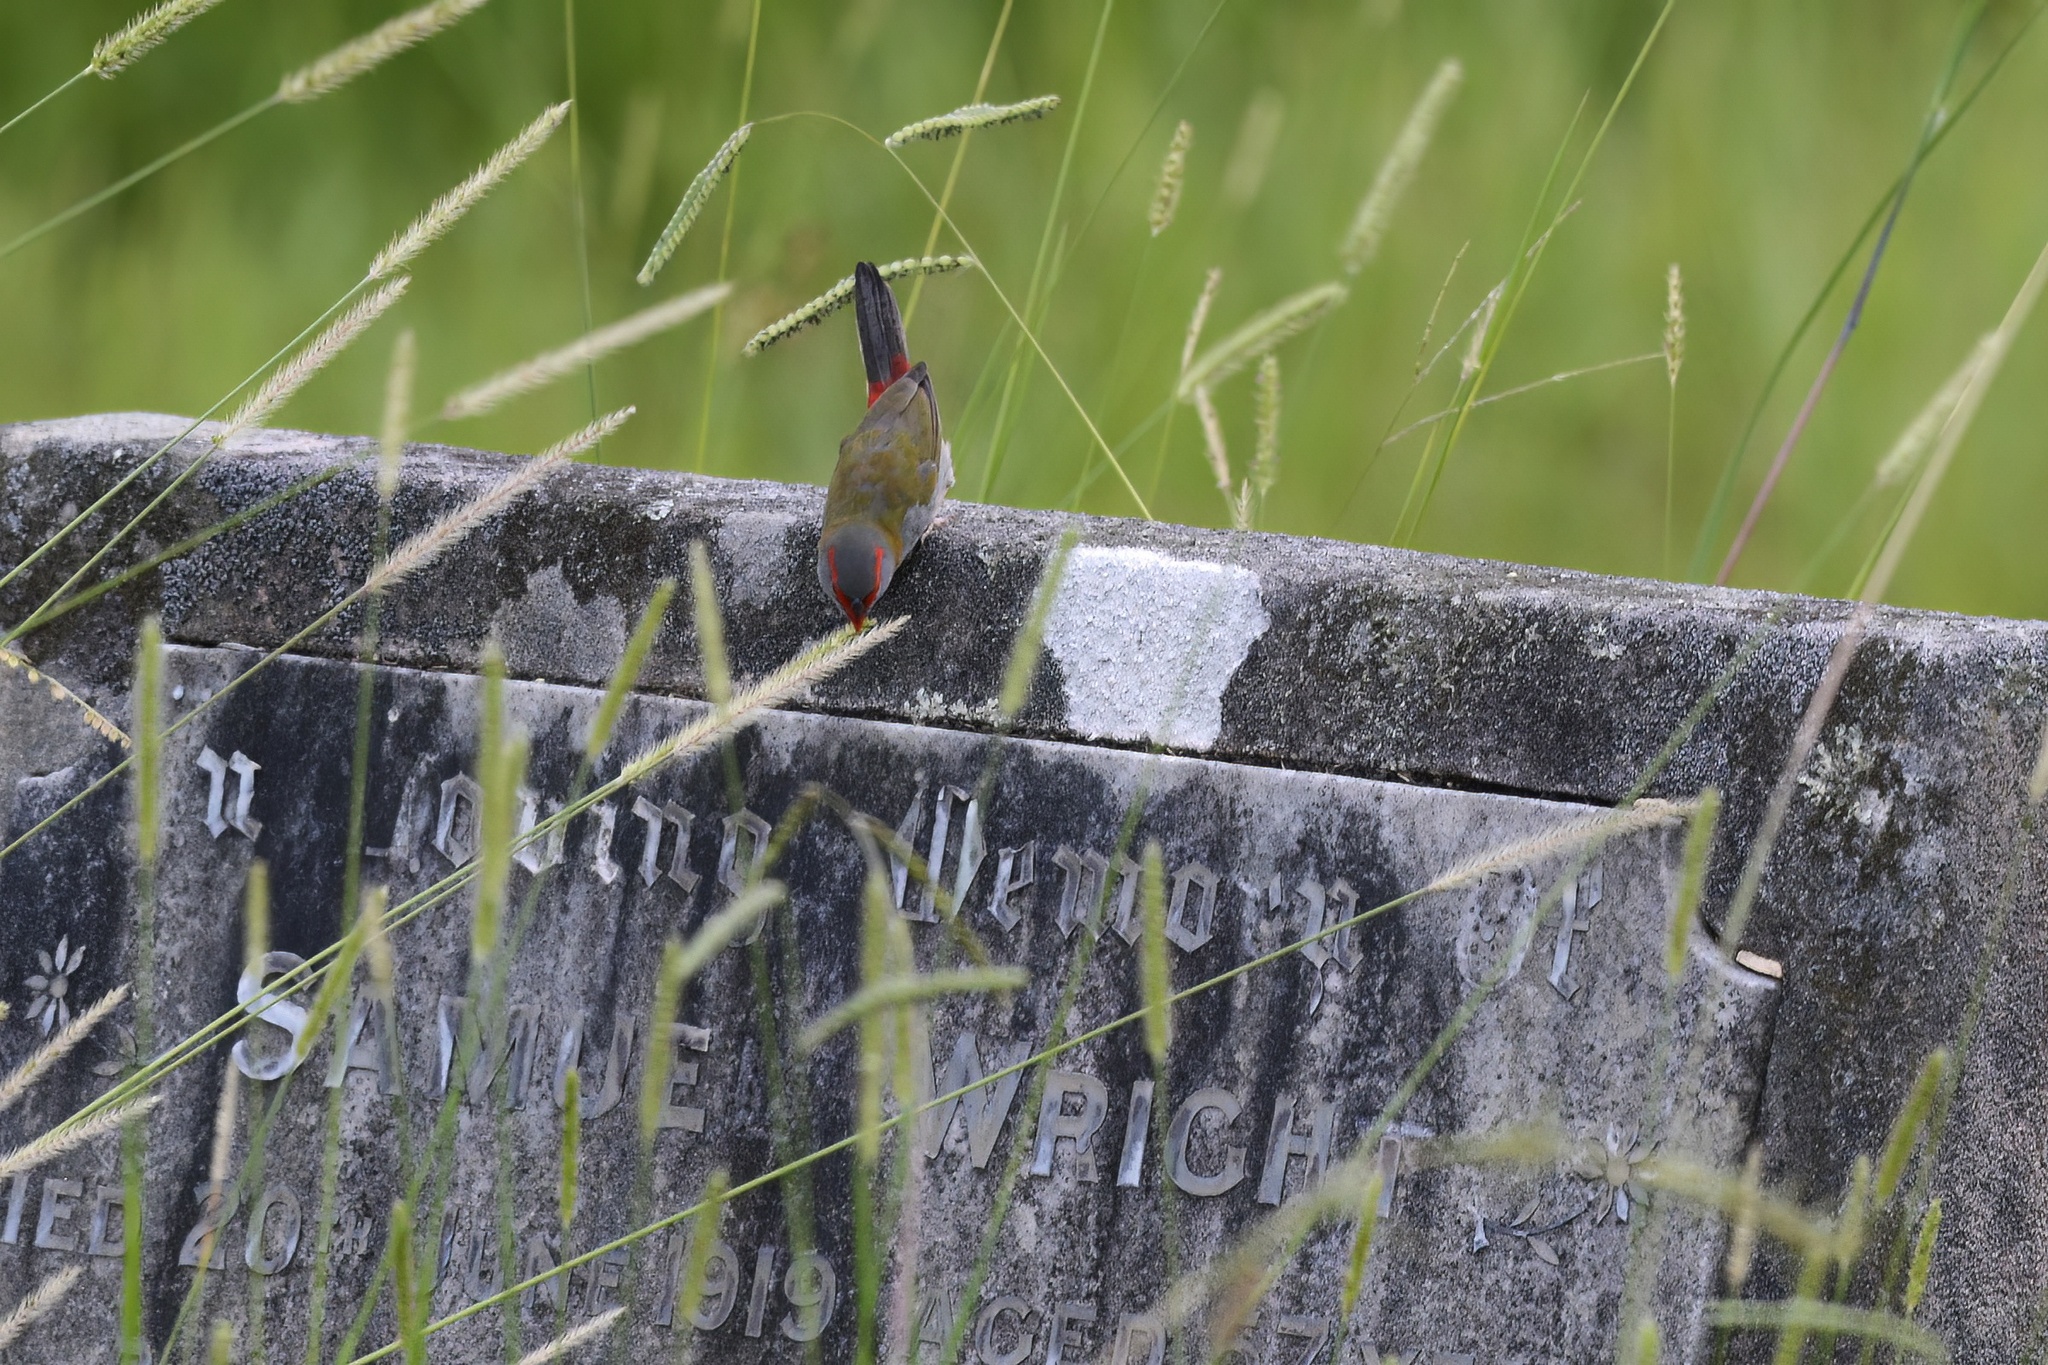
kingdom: Animalia
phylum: Chordata
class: Aves
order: Passeriformes
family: Estrildidae
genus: Neochmia
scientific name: Neochmia temporalis
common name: Red-browed finch
